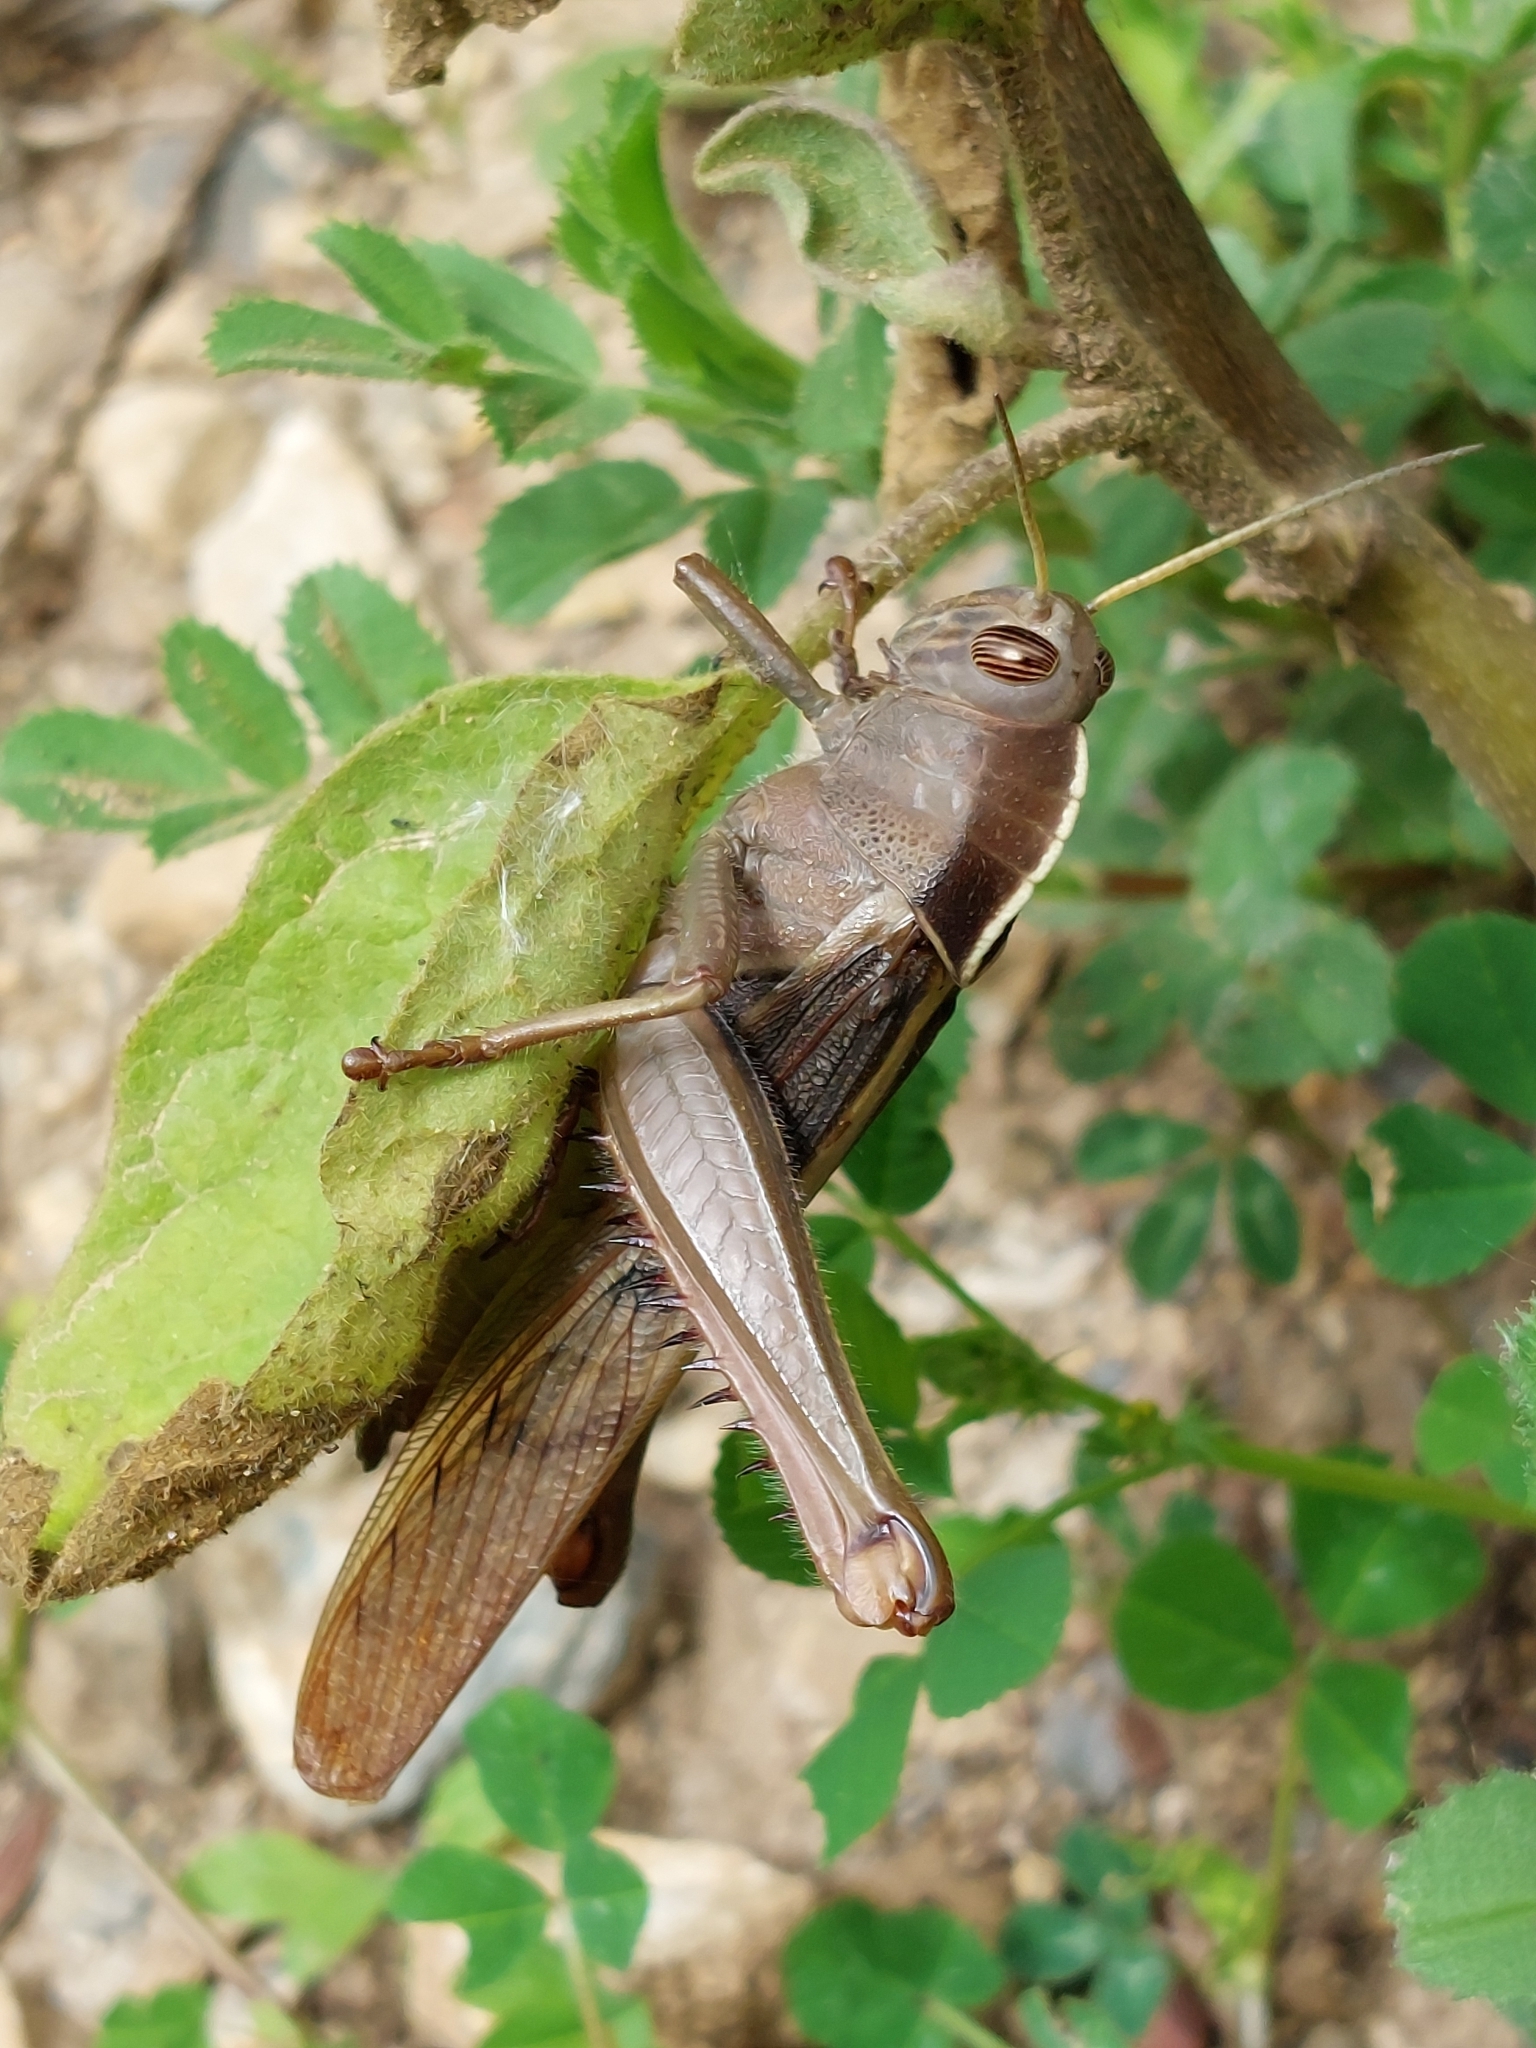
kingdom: Animalia
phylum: Arthropoda
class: Insecta
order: Orthoptera
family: Acrididae
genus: Acanthacris
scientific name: Acanthacris ruficornis
